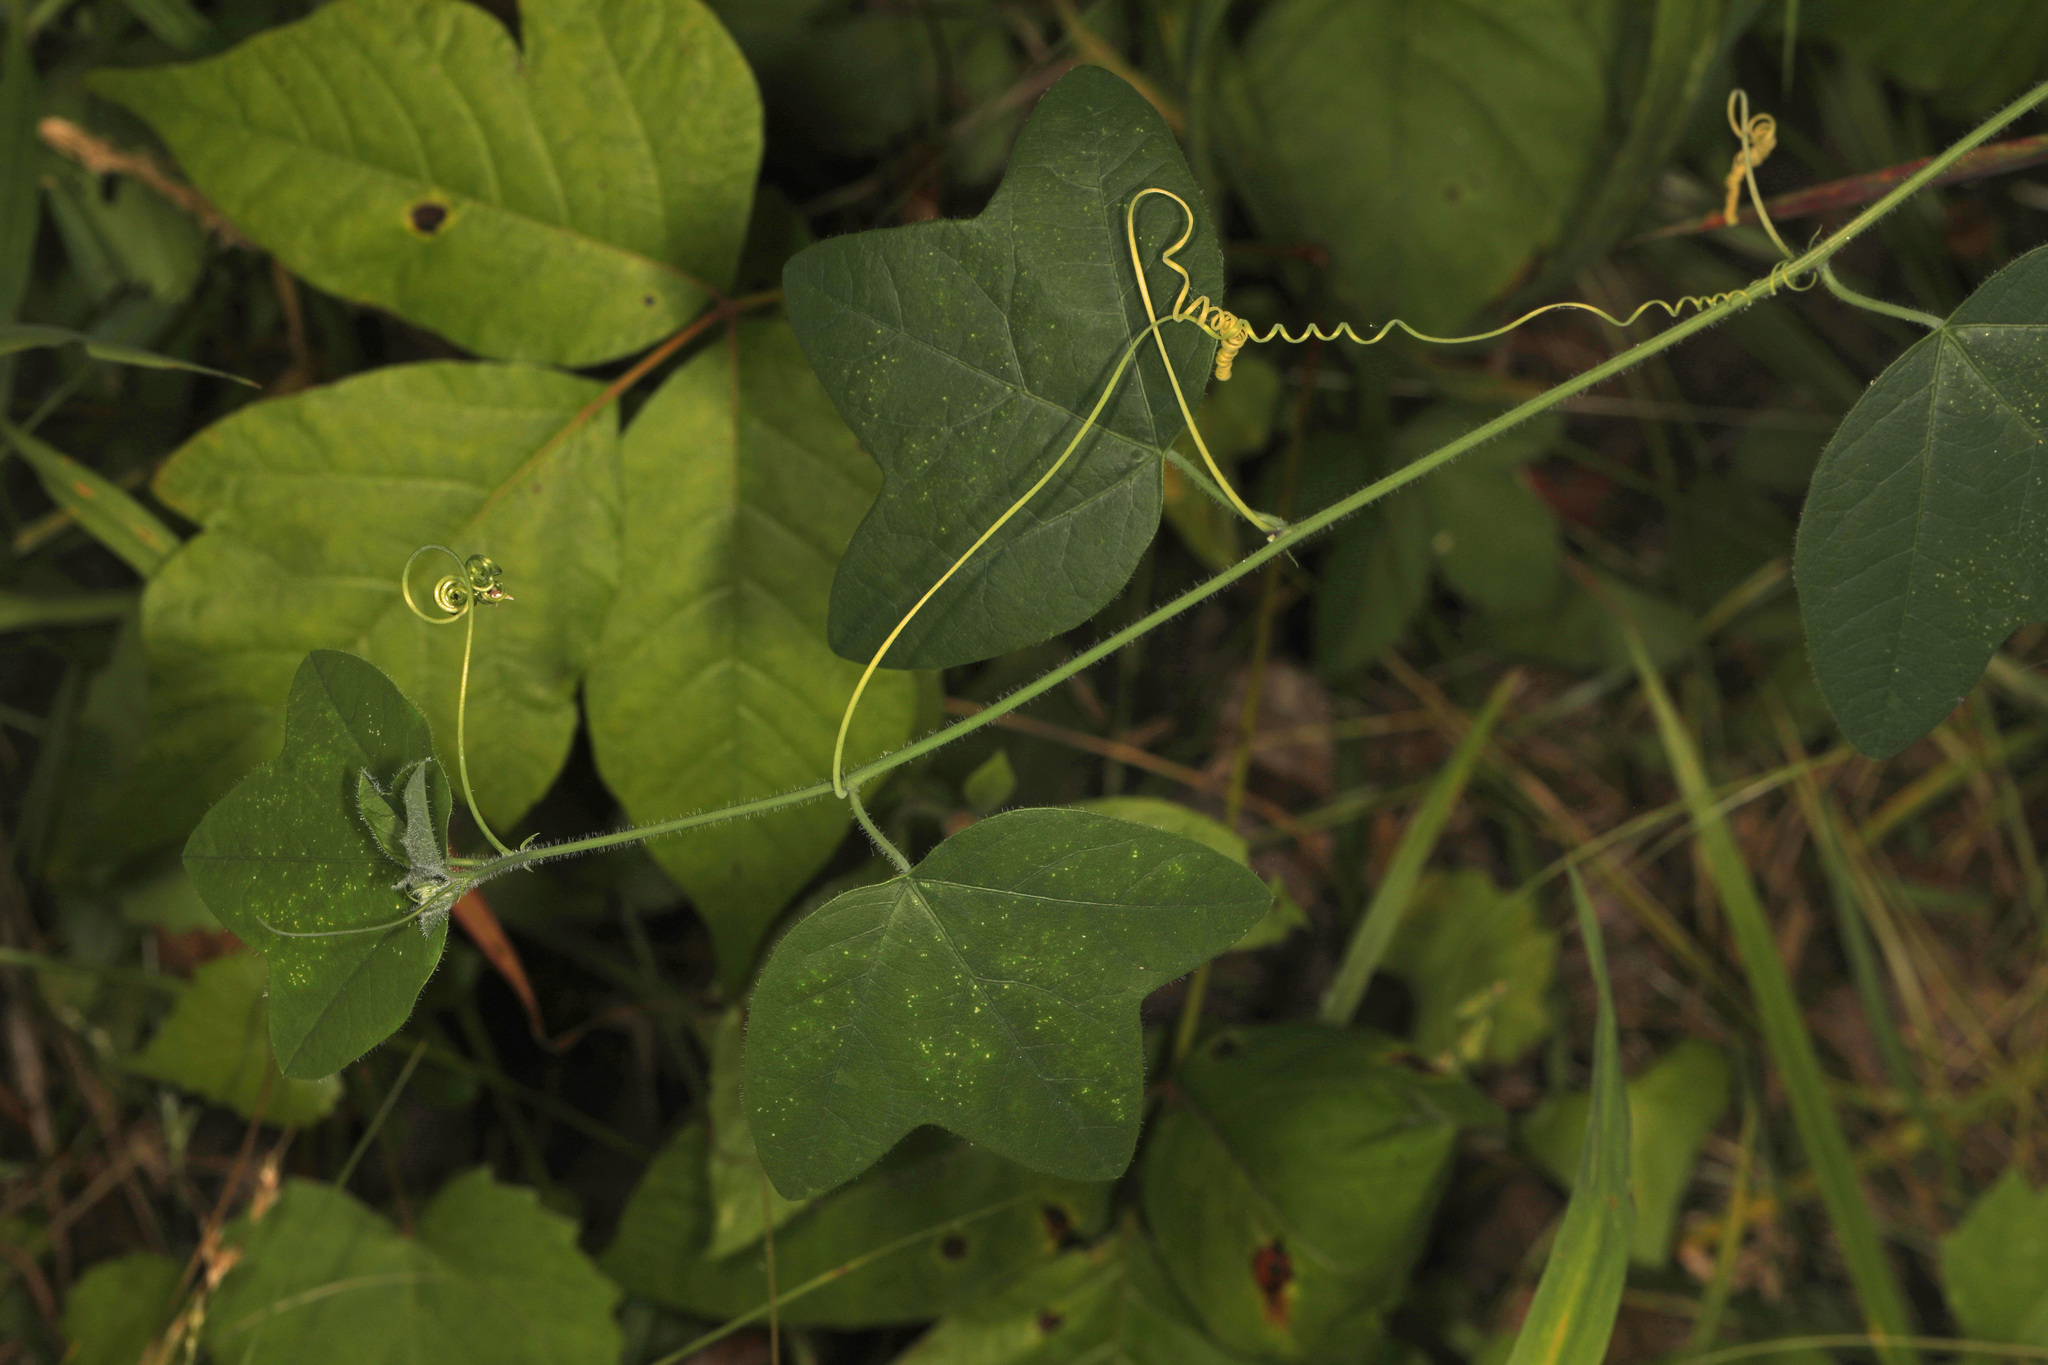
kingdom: Plantae
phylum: Tracheophyta
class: Magnoliopsida
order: Malpighiales
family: Passifloraceae
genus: Passiflora
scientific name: Passiflora lutea
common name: Yellow passionflower
